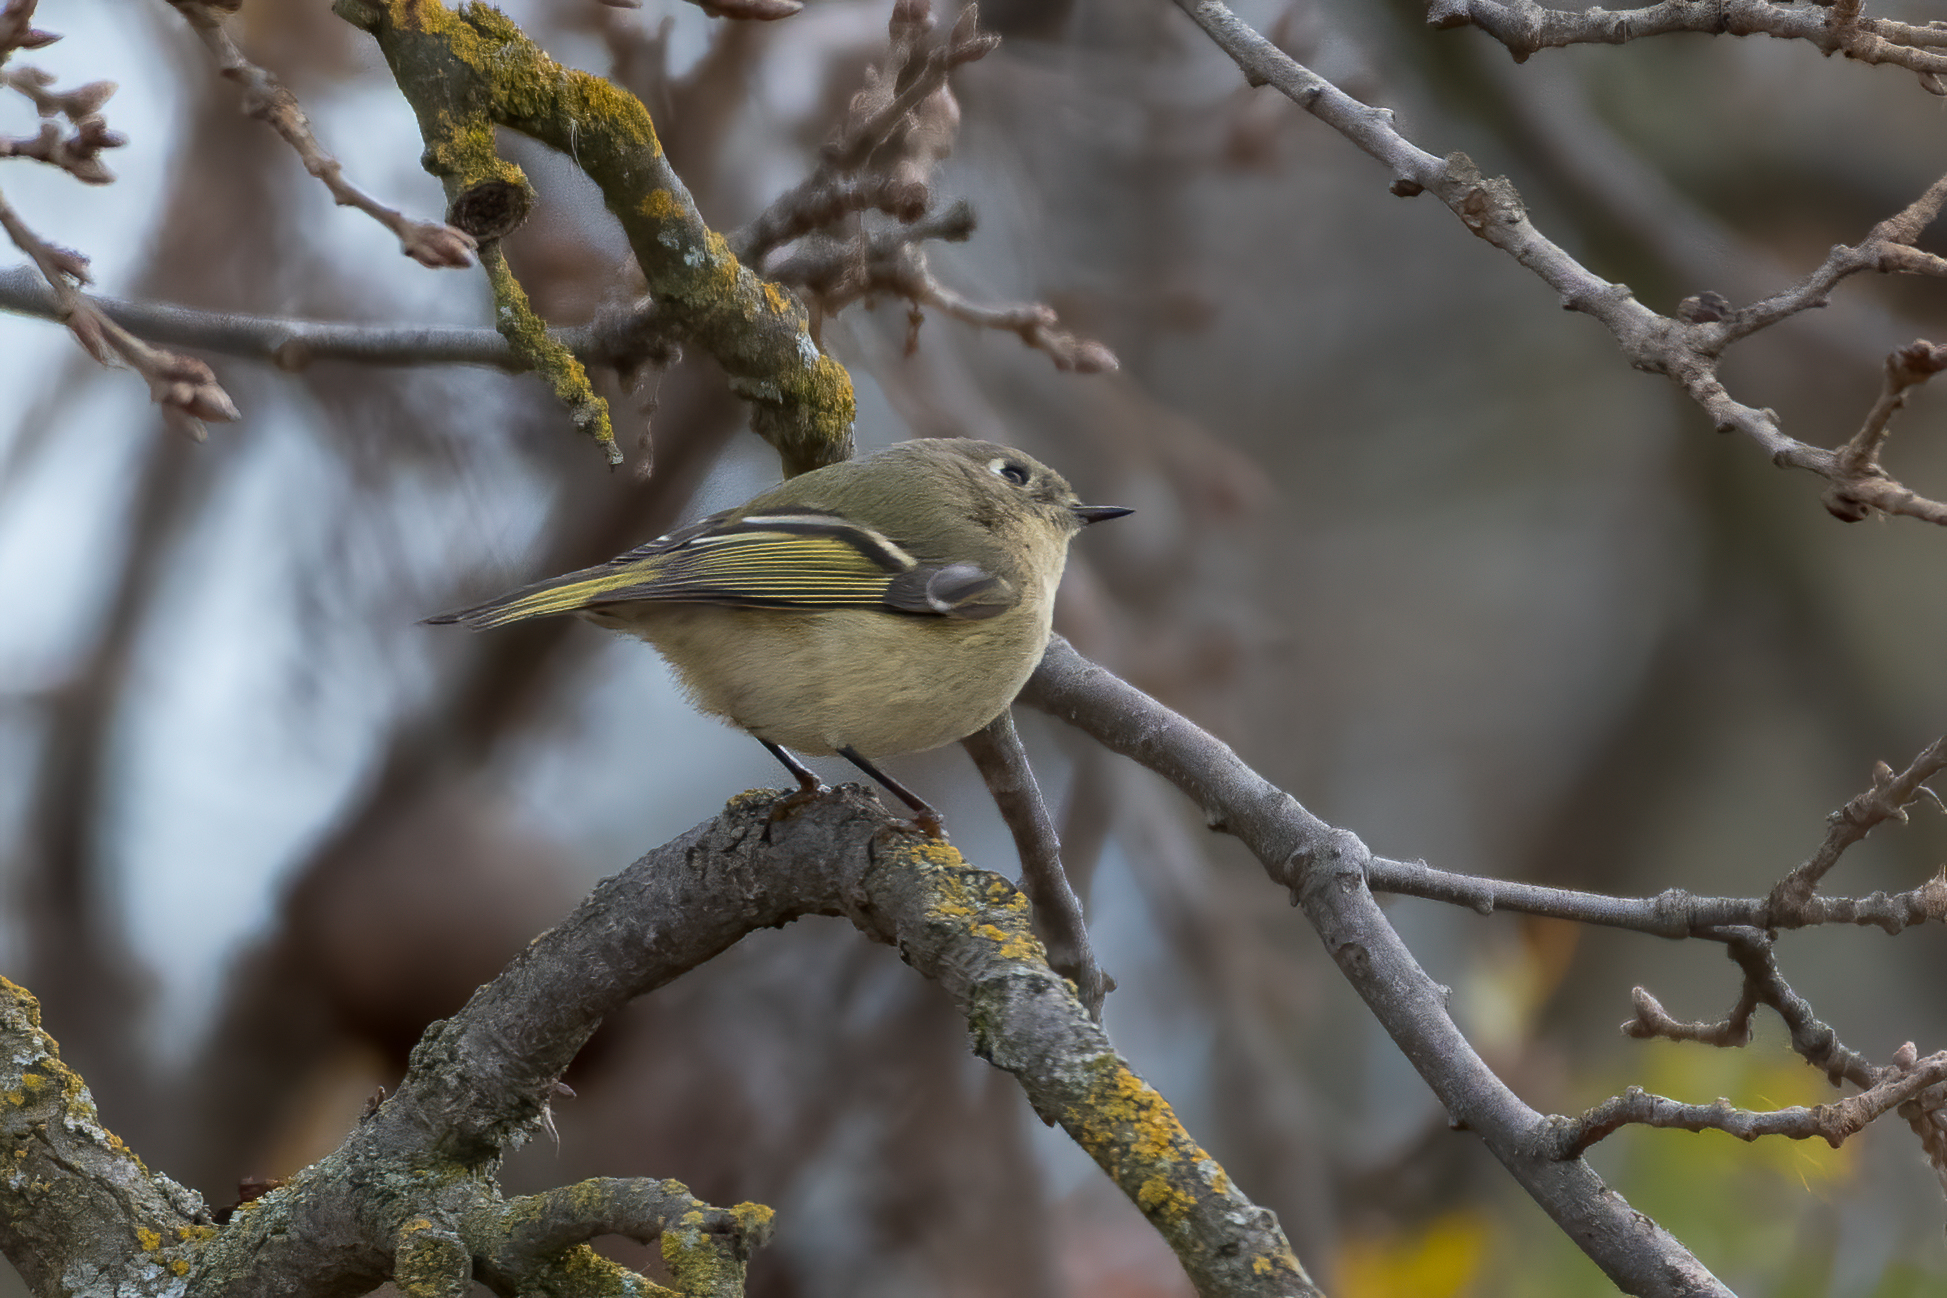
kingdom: Animalia
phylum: Chordata
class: Aves
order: Passeriformes
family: Regulidae
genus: Regulus
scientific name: Regulus calendula
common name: Ruby-crowned kinglet
